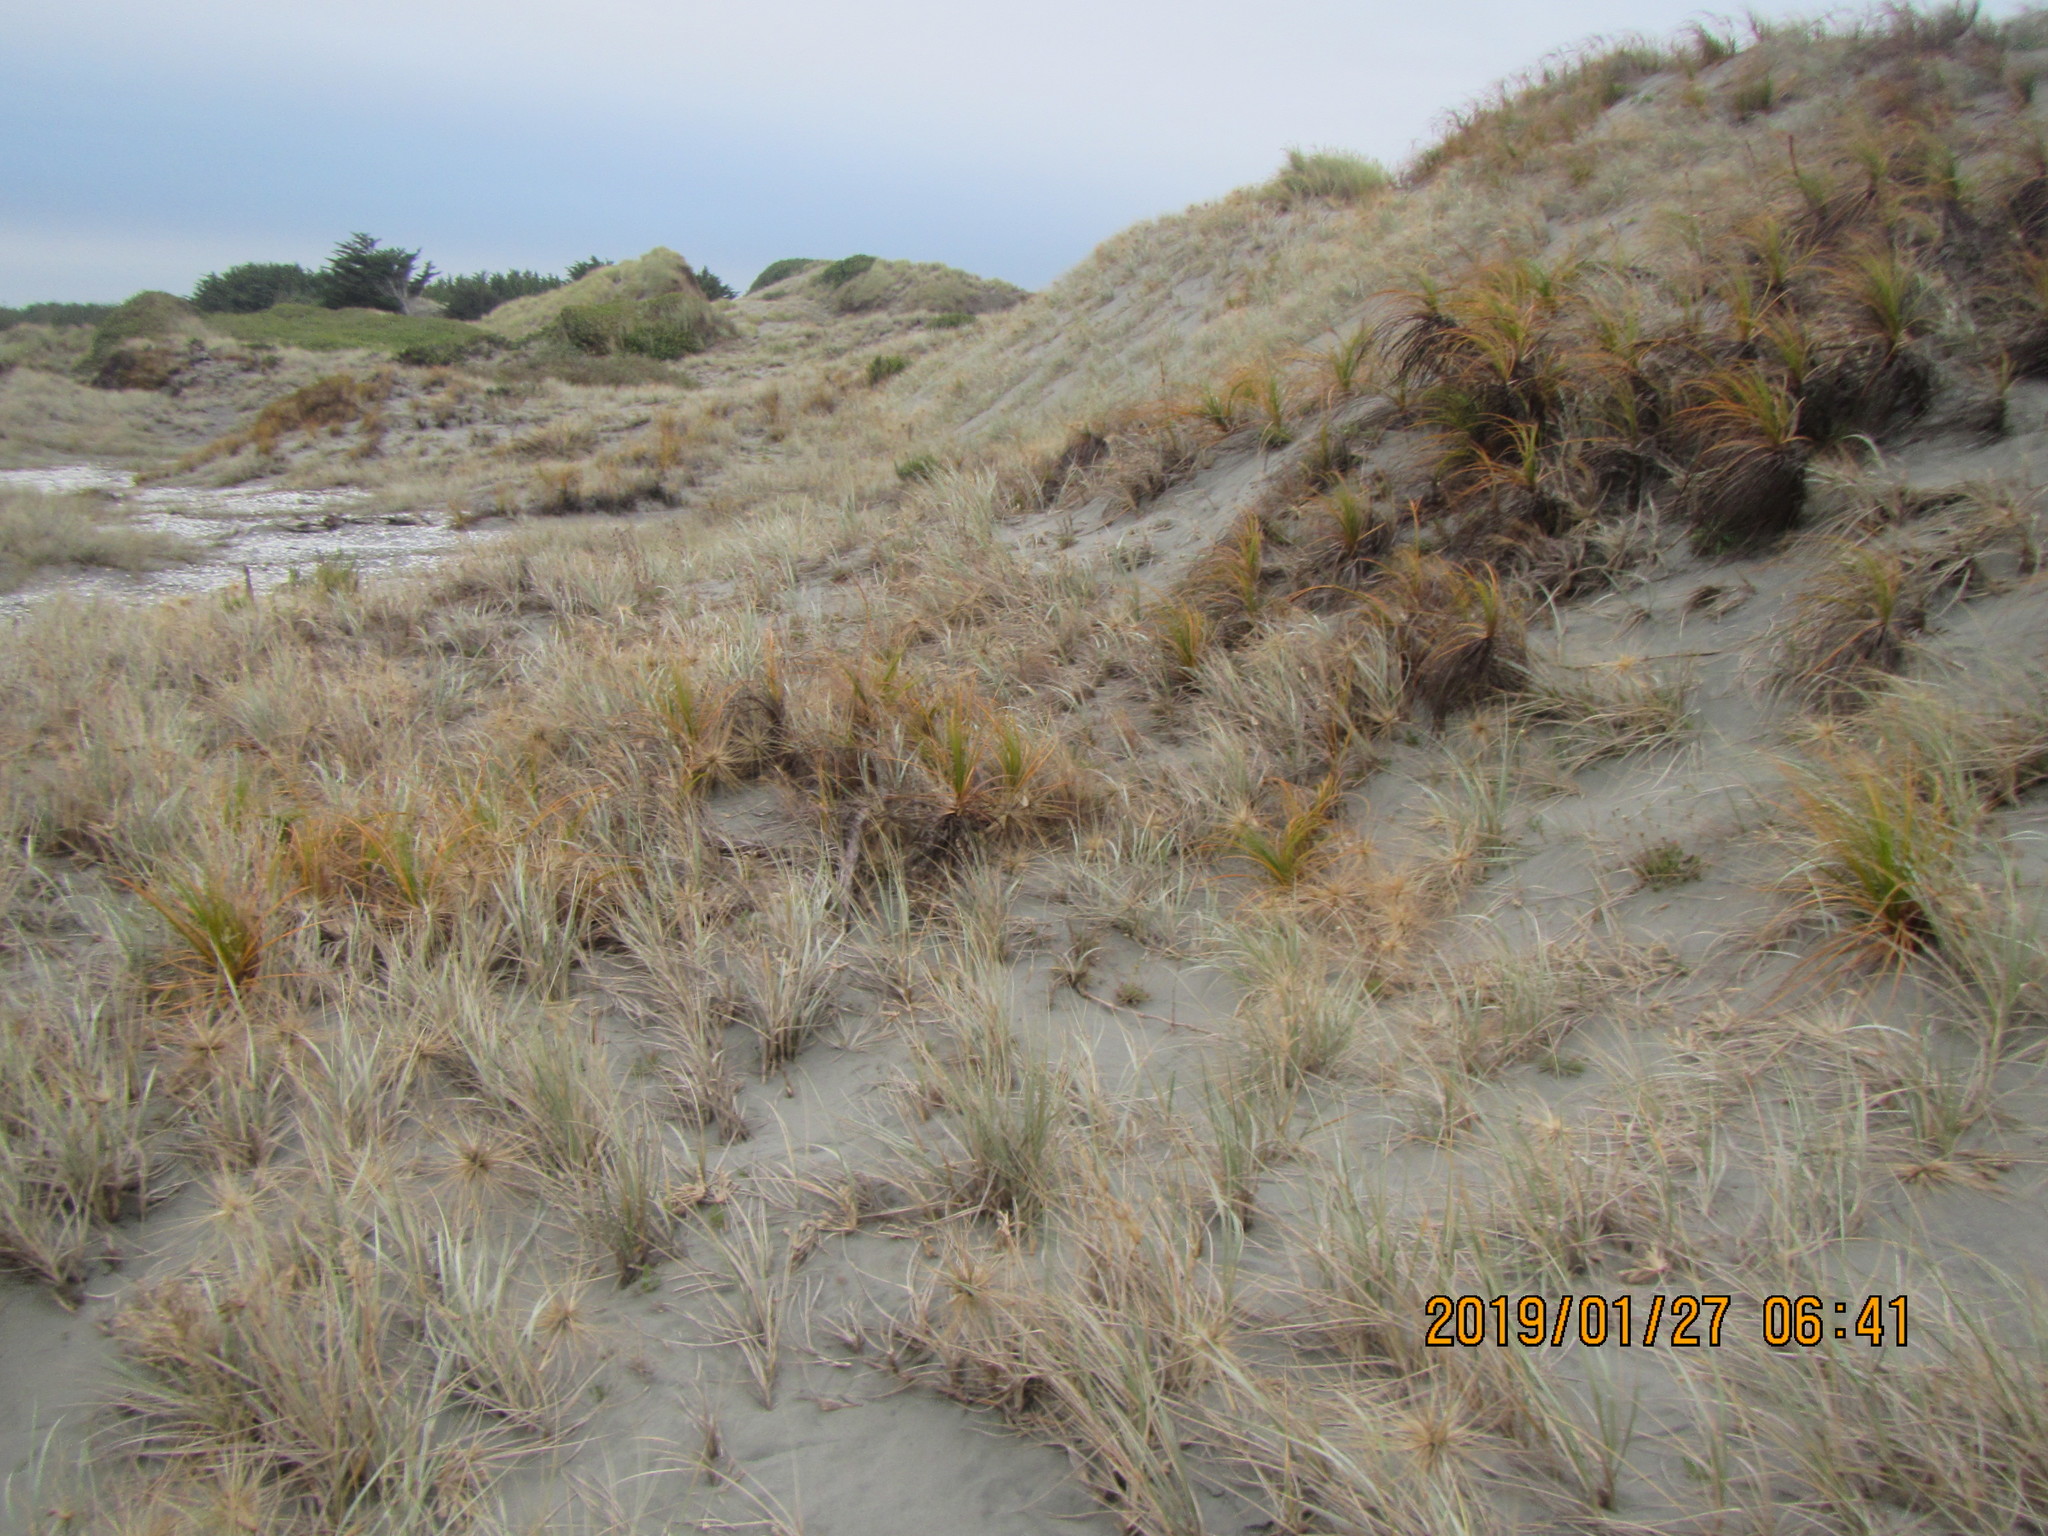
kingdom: Plantae
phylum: Tracheophyta
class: Liliopsida
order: Poales
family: Cyperaceae
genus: Ficinia
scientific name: Ficinia spiralis
